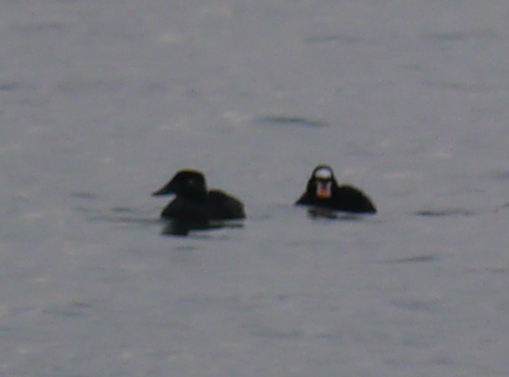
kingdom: Animalia
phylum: Chordata
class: Aves
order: Anseriformes
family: Anatidae
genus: Melanitta
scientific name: Melanitta perspicillata
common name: Surf scoter
